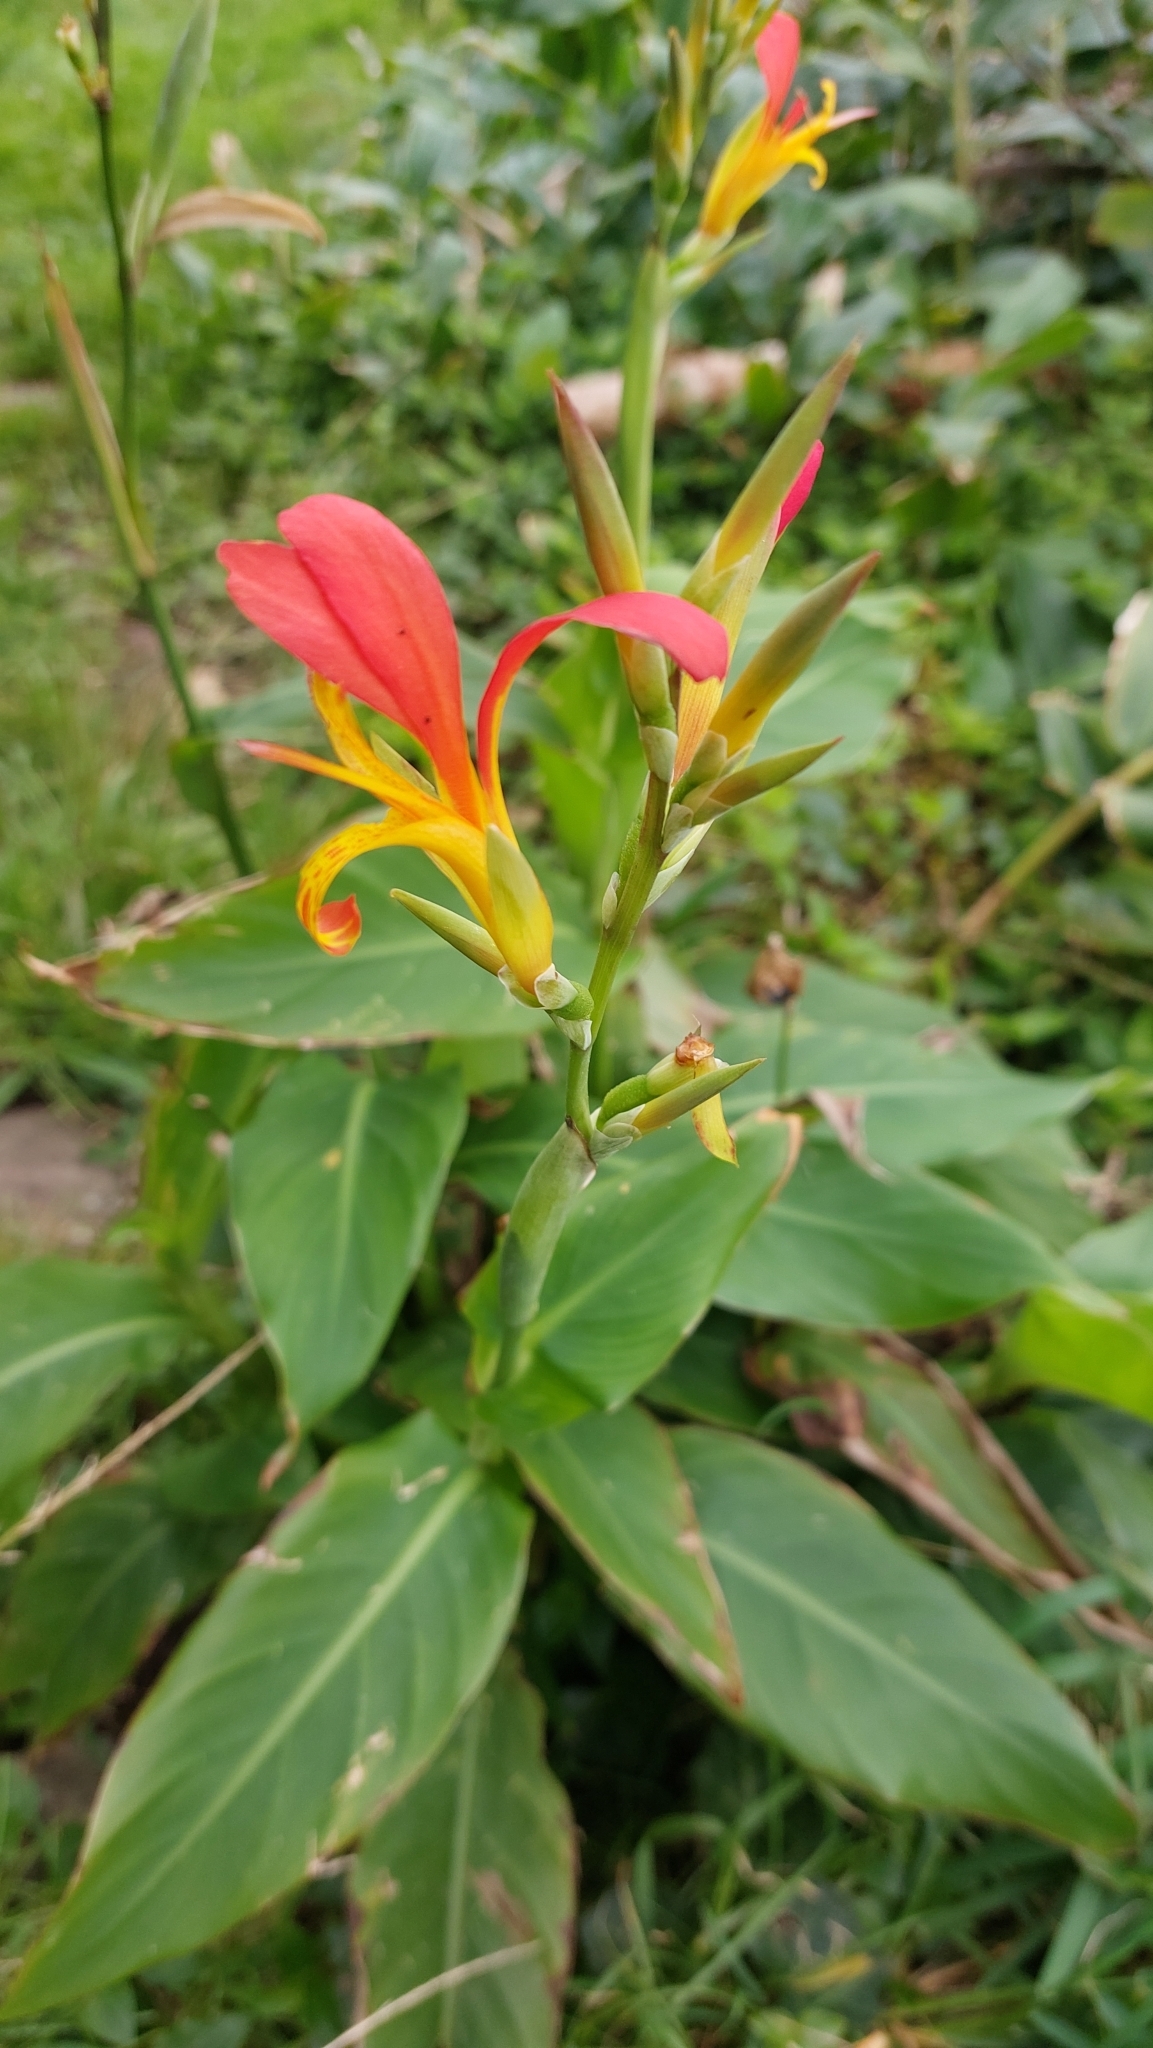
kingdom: Plantae
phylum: Tracheophyta
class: Liliopsida
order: Zingiberales
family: Cannaceae
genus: Canna
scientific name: Canna indica
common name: Indian shot
